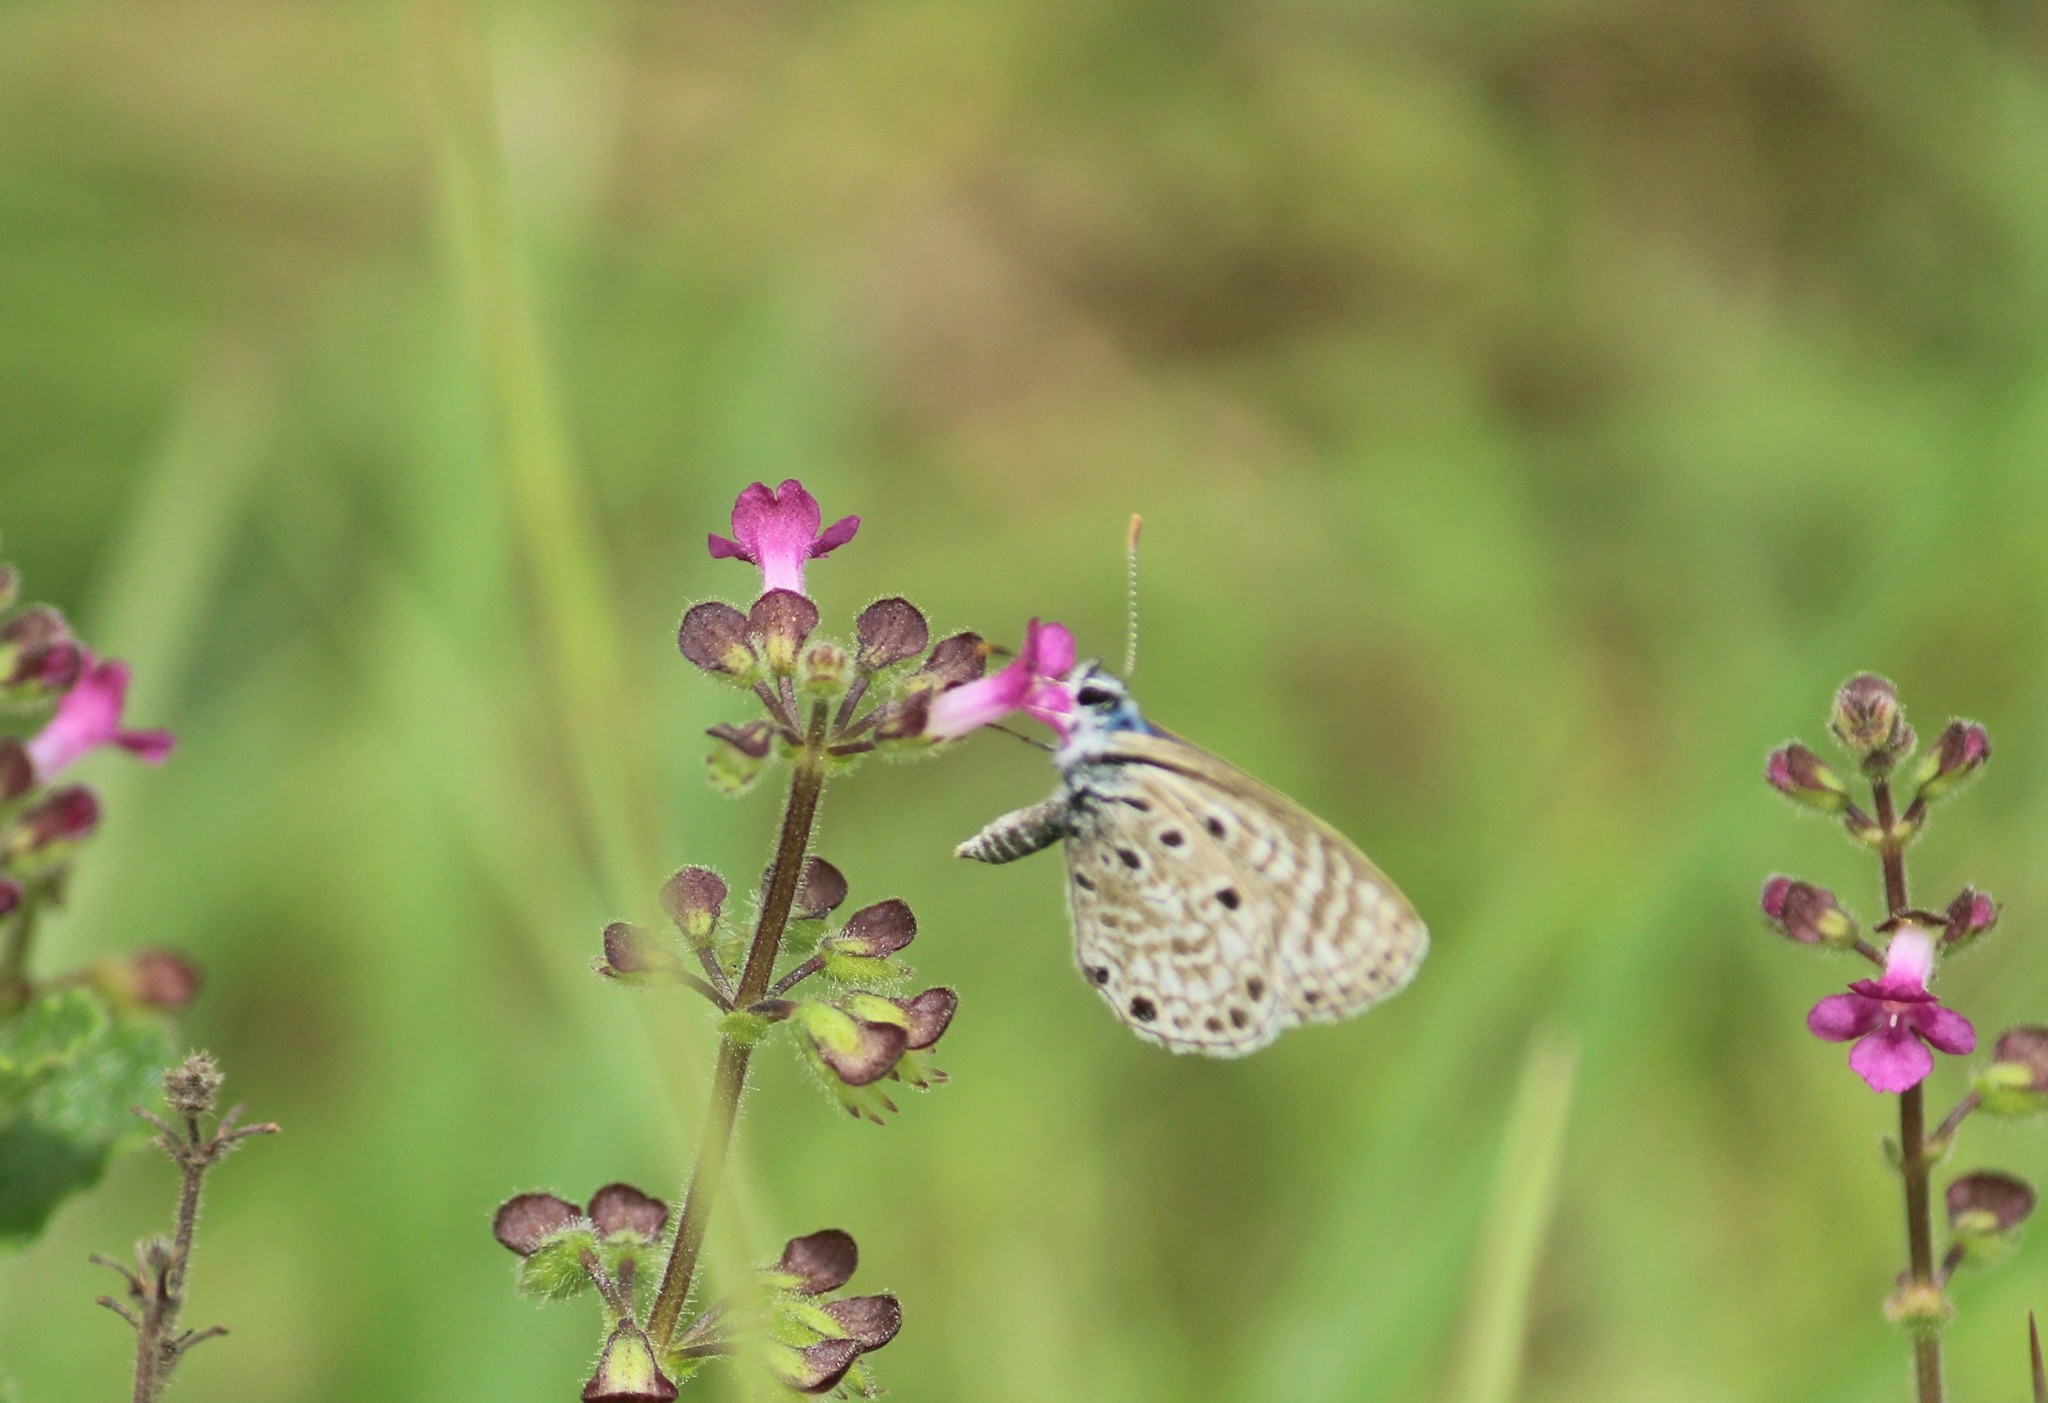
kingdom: Animalia
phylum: Arthropoda
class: Insecta
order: Lepidoptera
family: Lycaenidae
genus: Azanus
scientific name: Azanus jesous
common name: African babul blue
